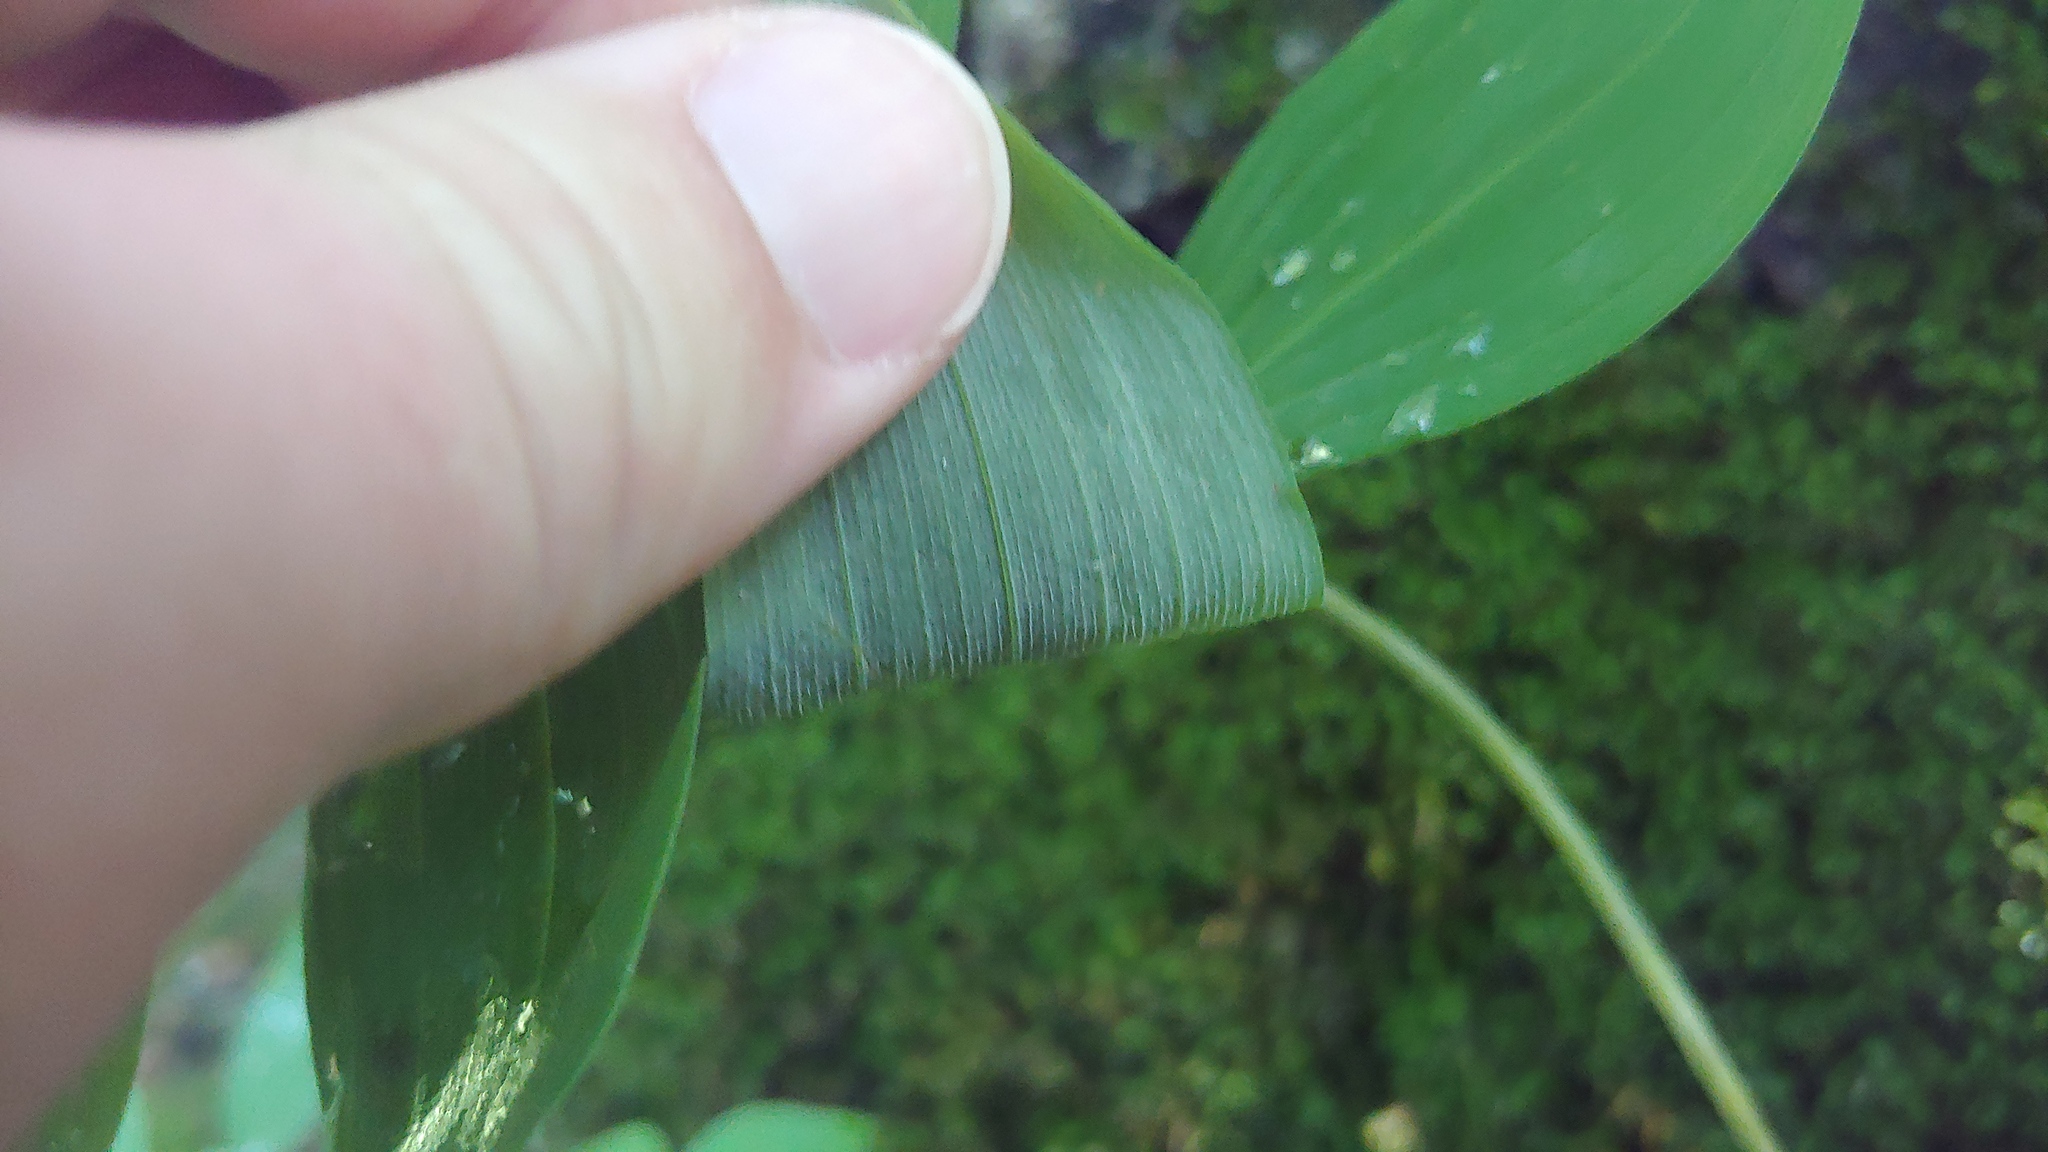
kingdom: Plantae
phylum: Tracheophyta
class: Liliopsida
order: Asparagales
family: Asparagaceae
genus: Polygonatum
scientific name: Polygonatum pubescens
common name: Downy solomon's seal
